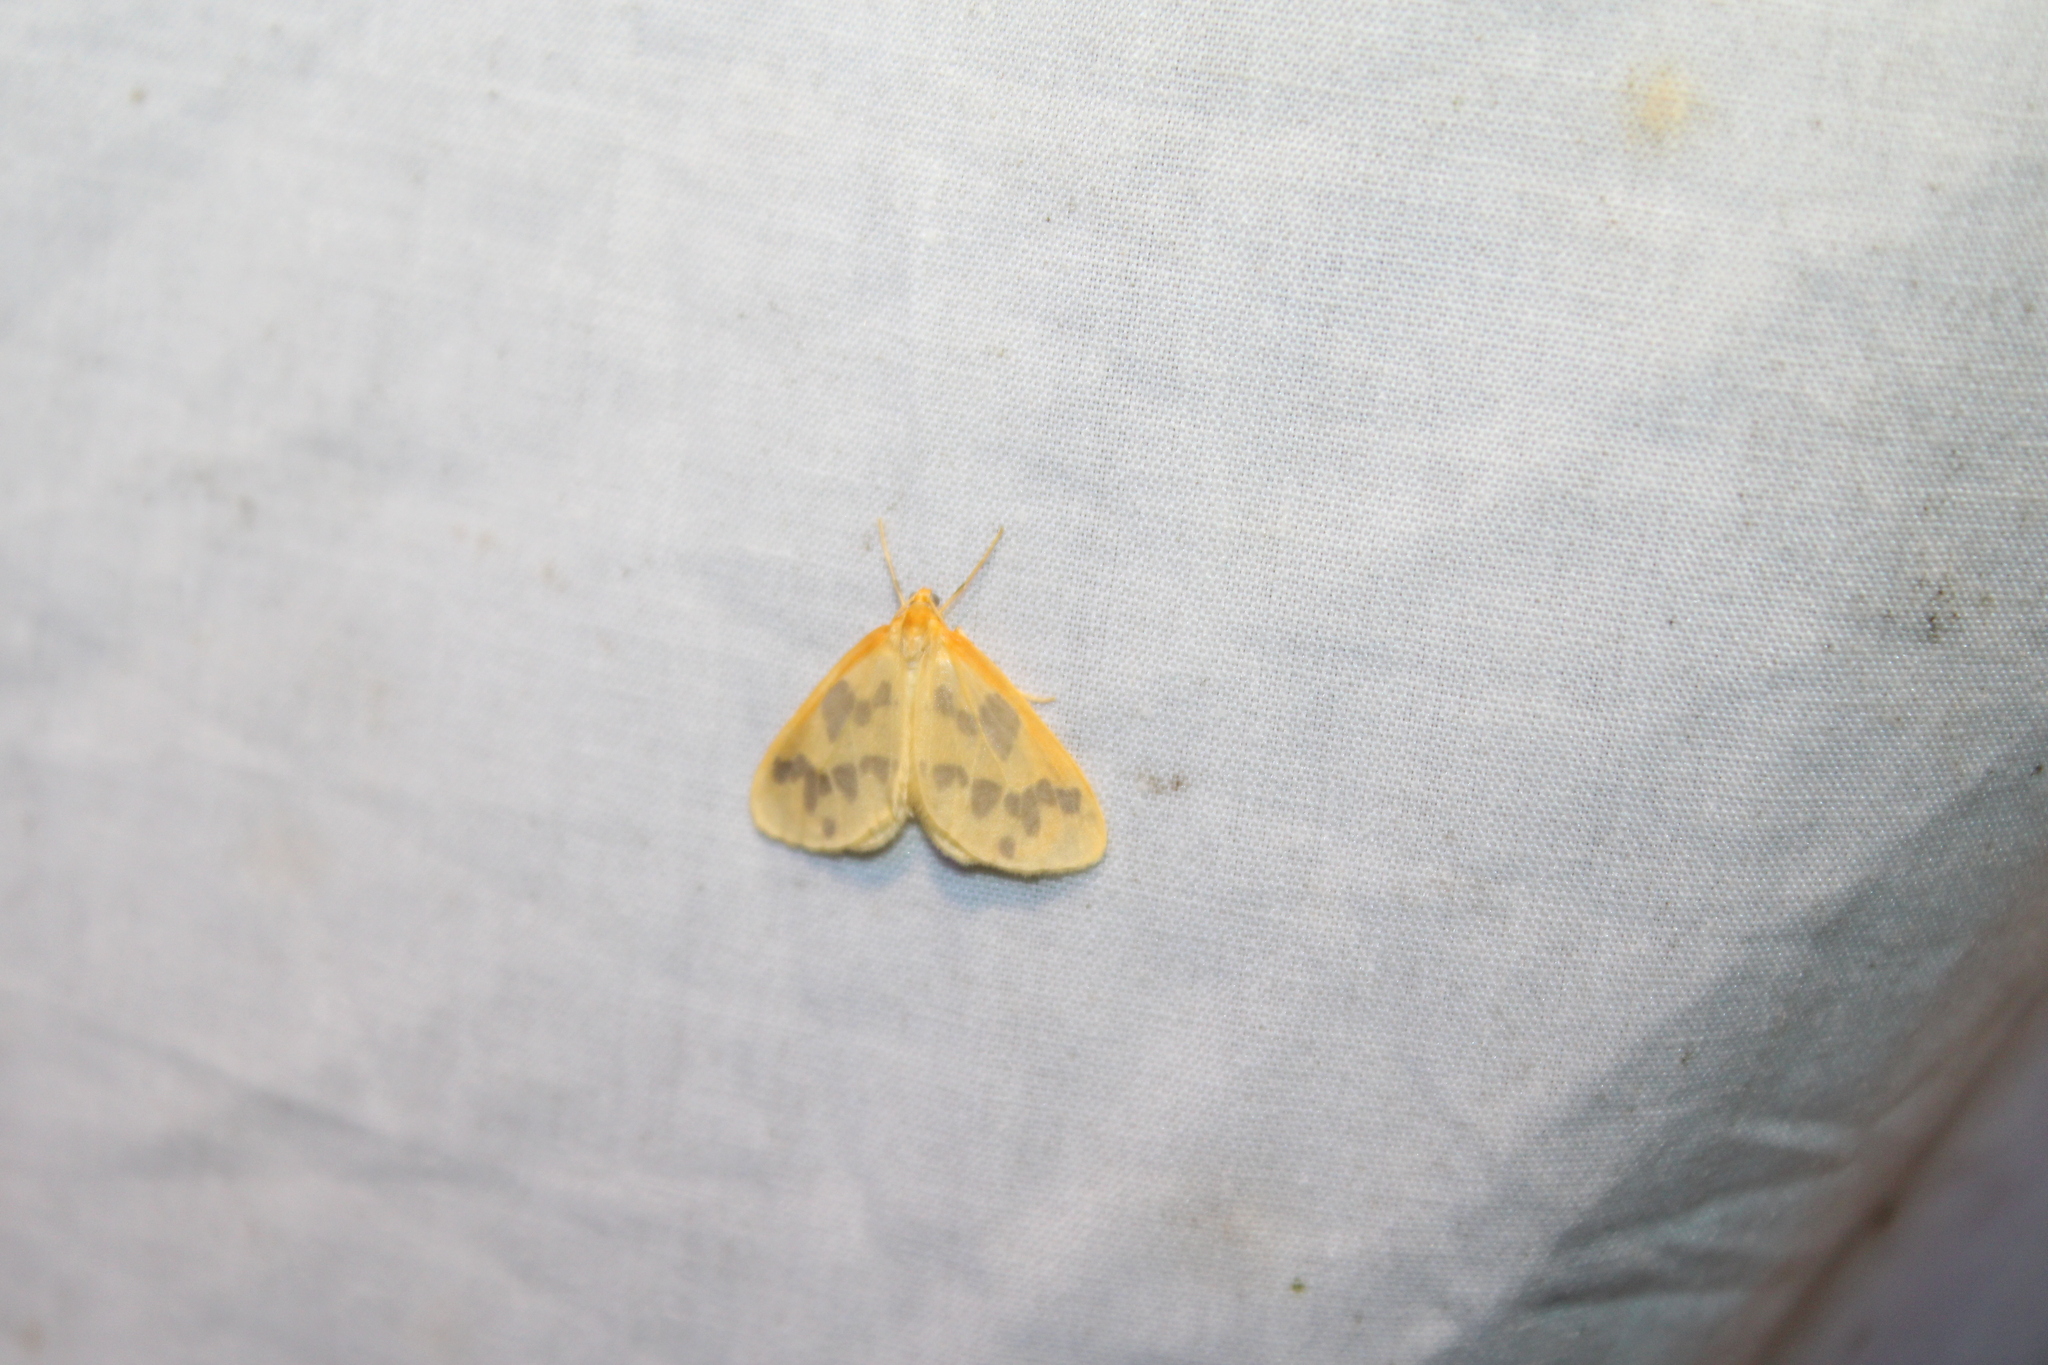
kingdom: Animalia
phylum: Arthropoda
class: Insecta
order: Lepidoptera
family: Geometridae
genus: Eubaphe
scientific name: Eubaphe mendica
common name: Beggar
